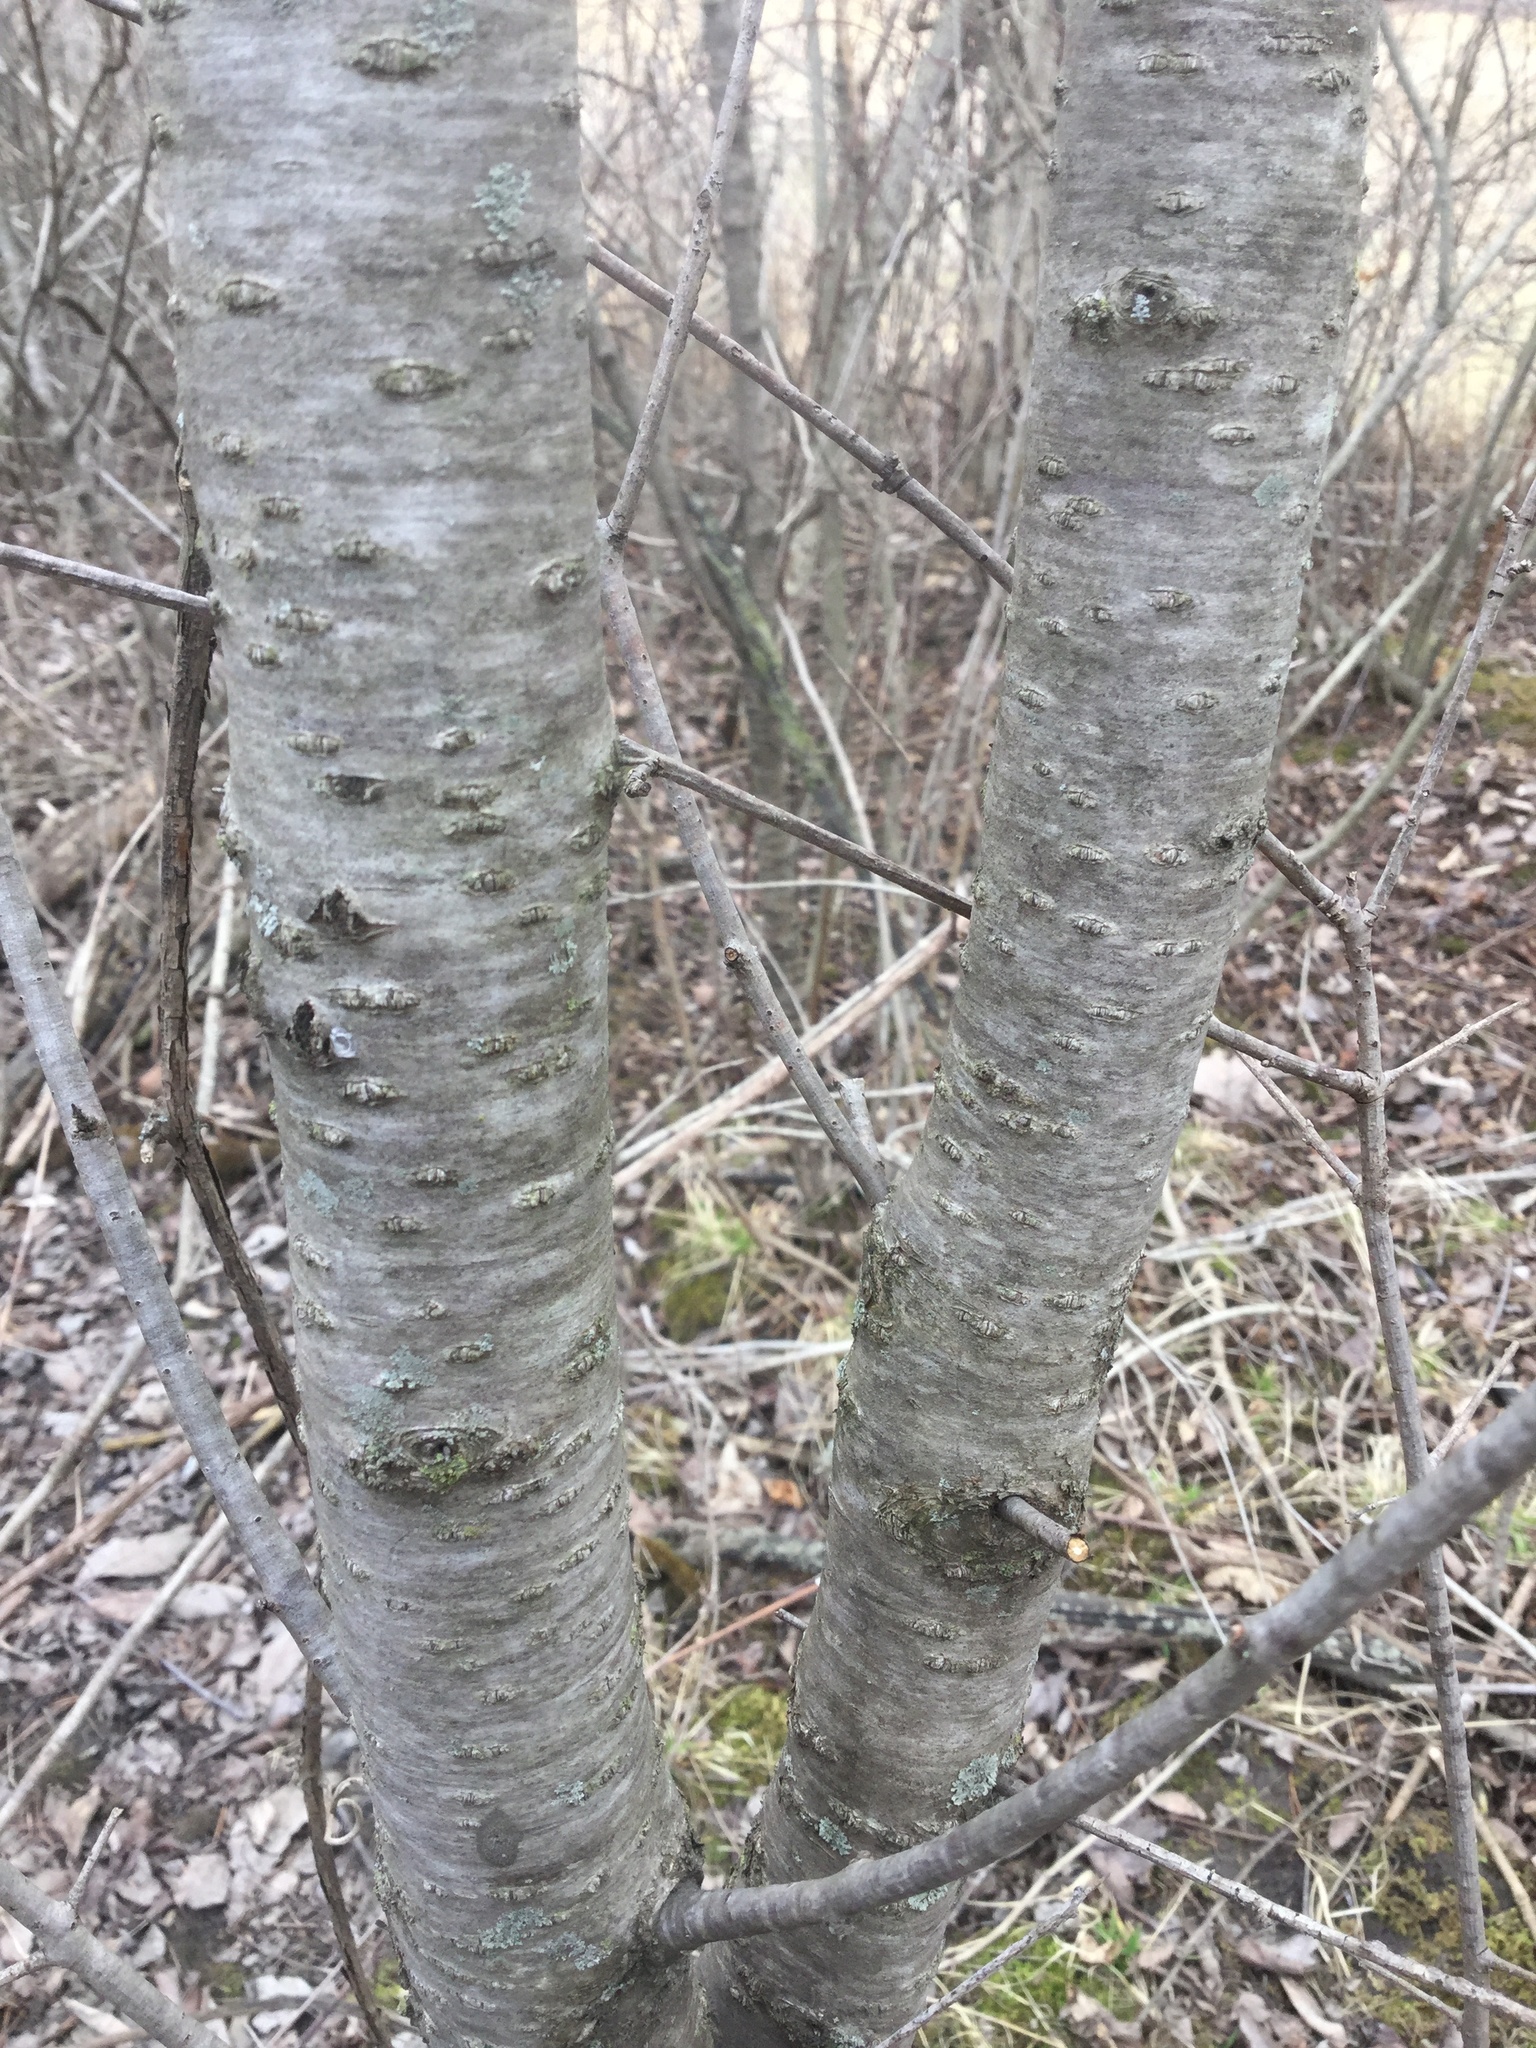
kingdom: Plantae
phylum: Tracheophyta
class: Magnoliopsida
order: Rosales
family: Rhamnaceae
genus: Rhamnus
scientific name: Rhamnus cathartica
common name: Common buckthorn
